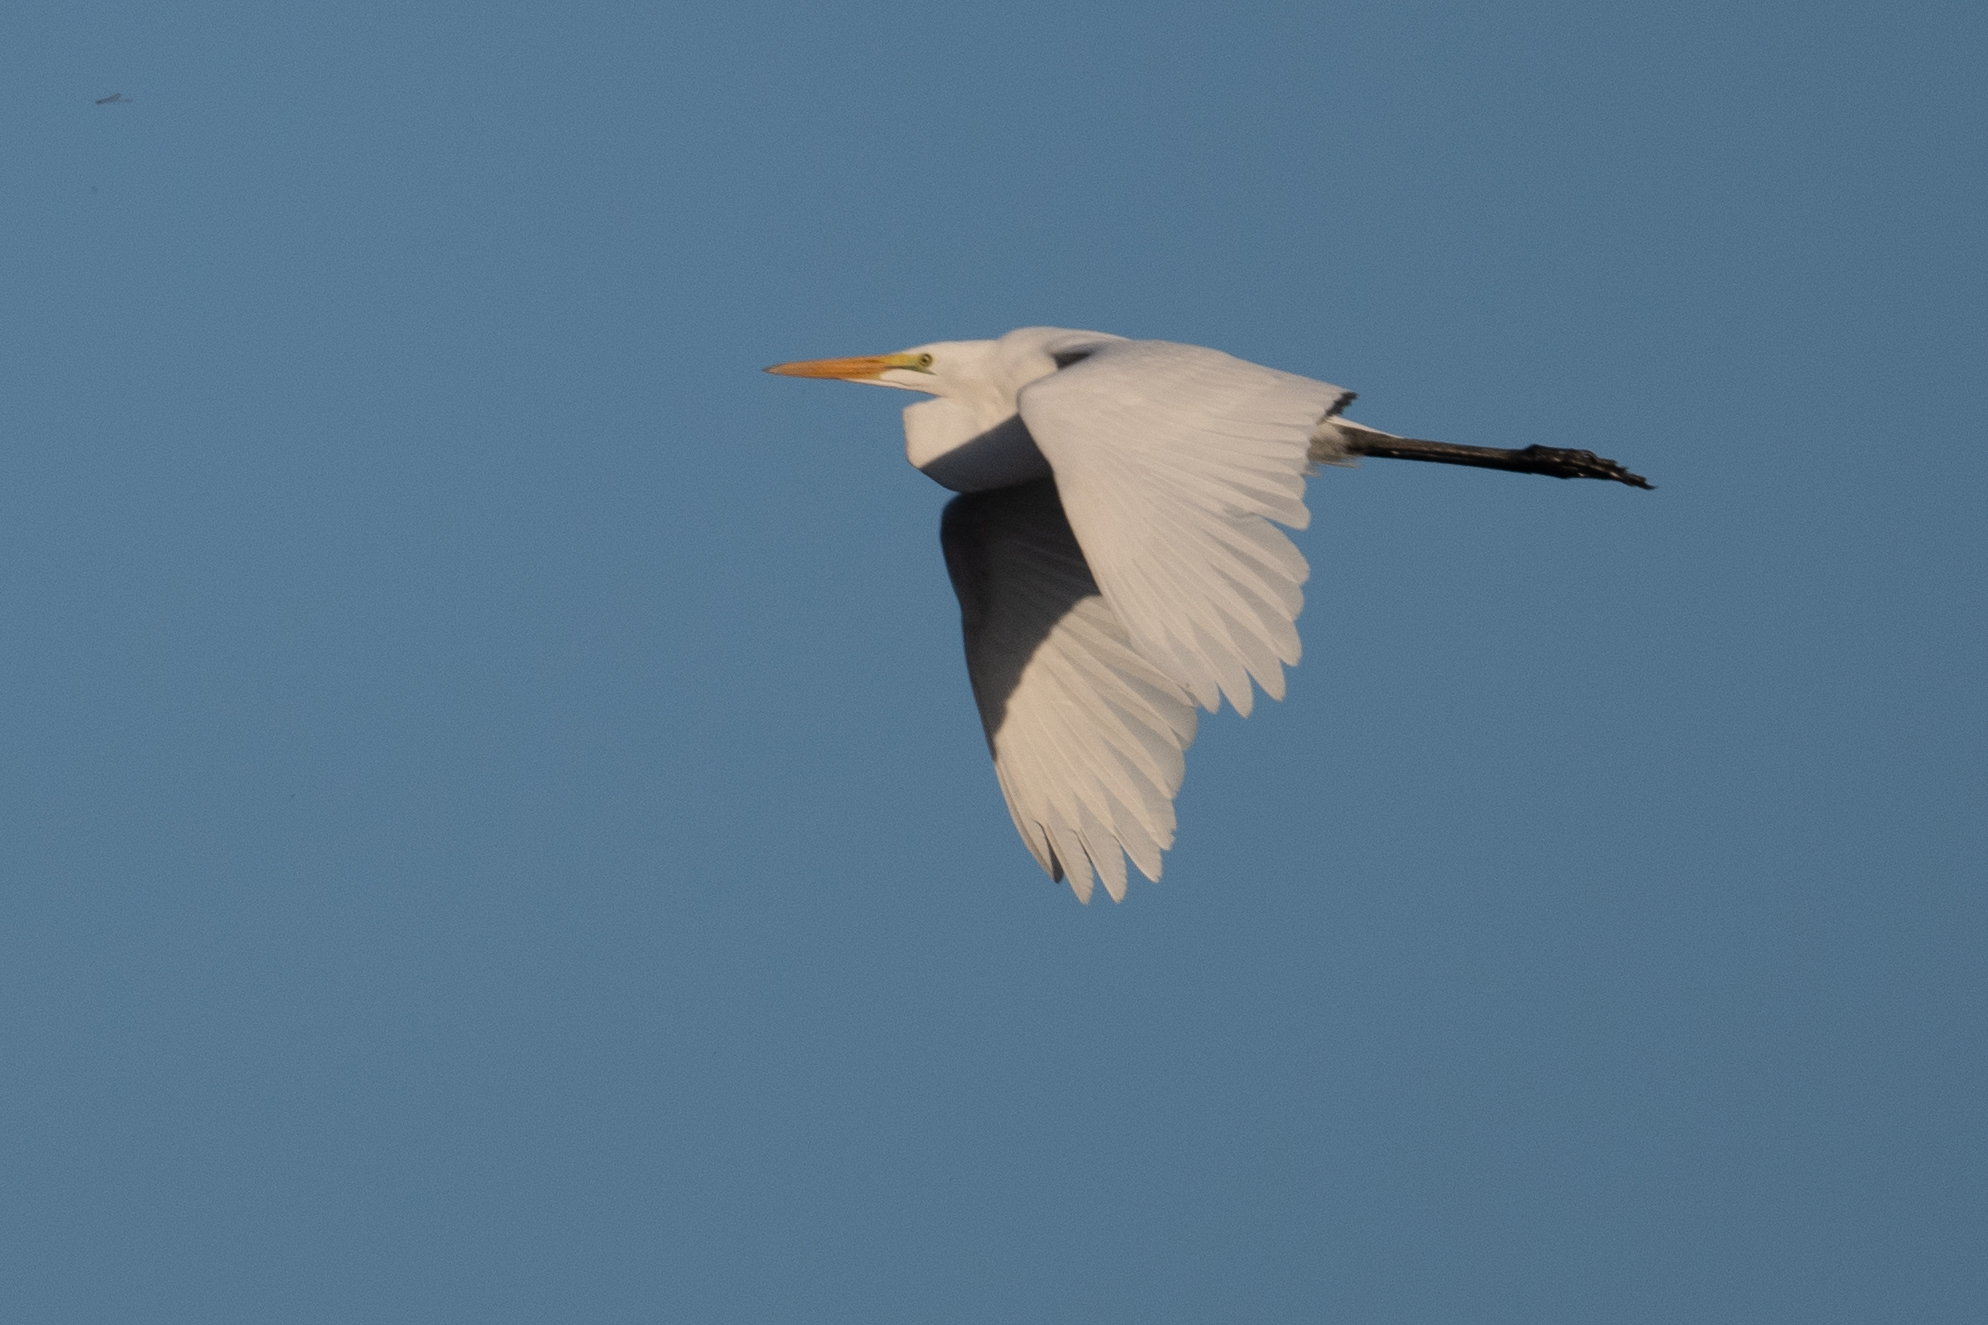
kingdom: Animalia
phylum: Chordata
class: Aves
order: Pelecaniformes
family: Ardeidae
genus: Ardea
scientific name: Ardea alba
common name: Great egret
